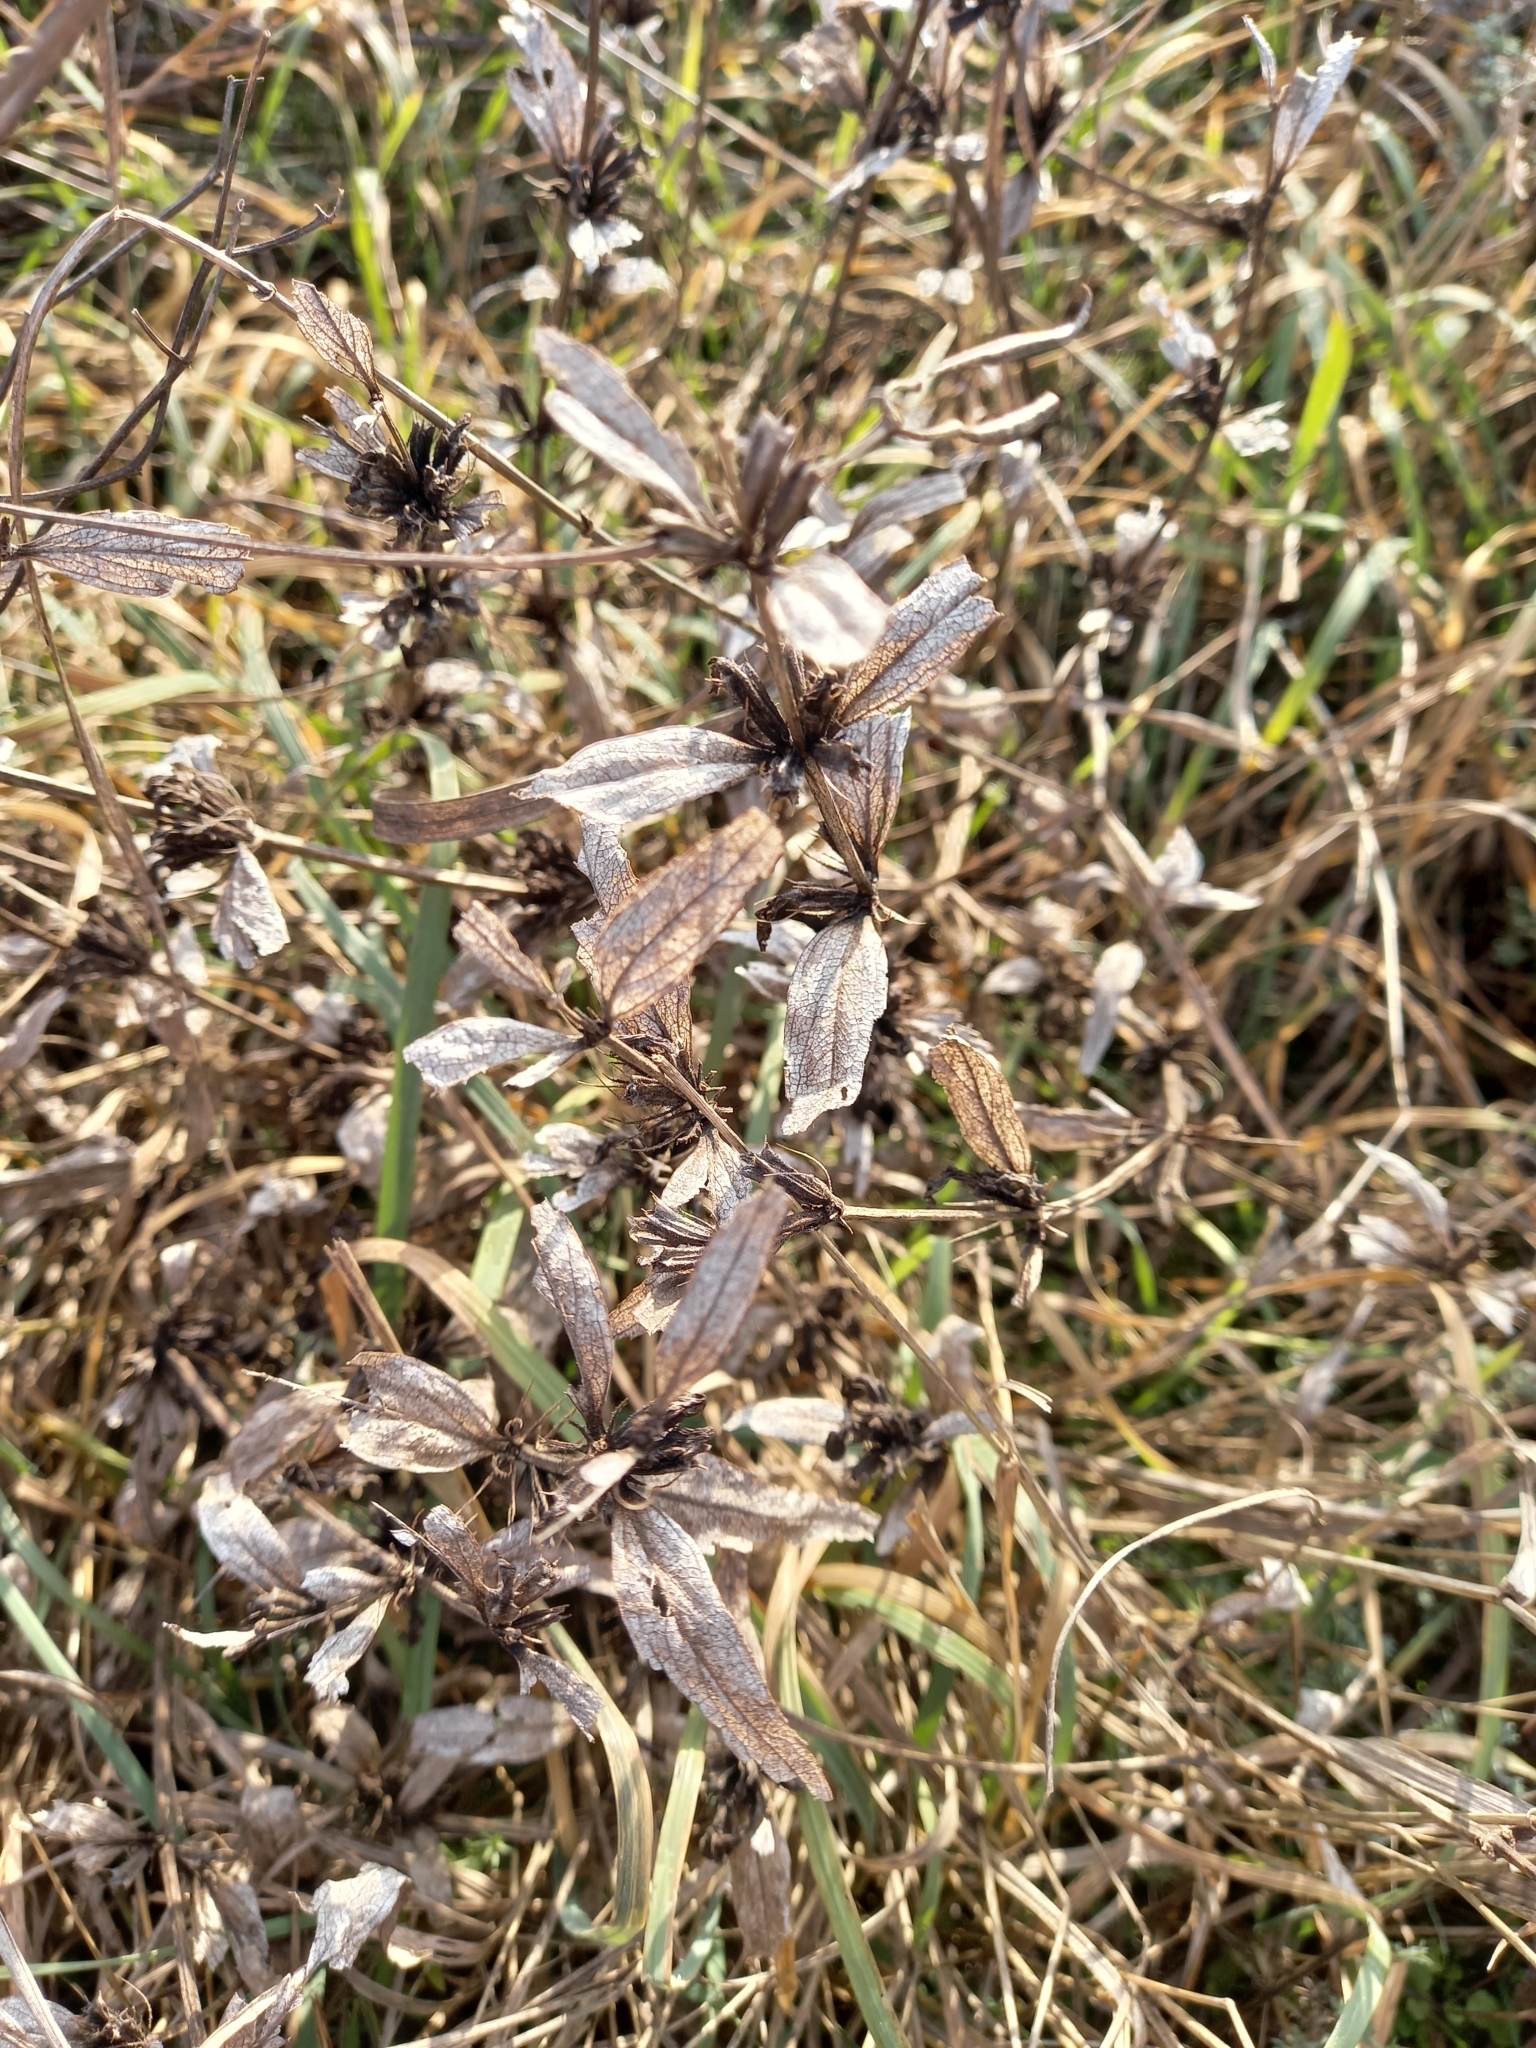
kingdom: Plantae
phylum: Tracheophyta
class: Magnoliopsida
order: Lamiales
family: Lamiaceae
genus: Phlomis
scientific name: Phlomis herba-venti
